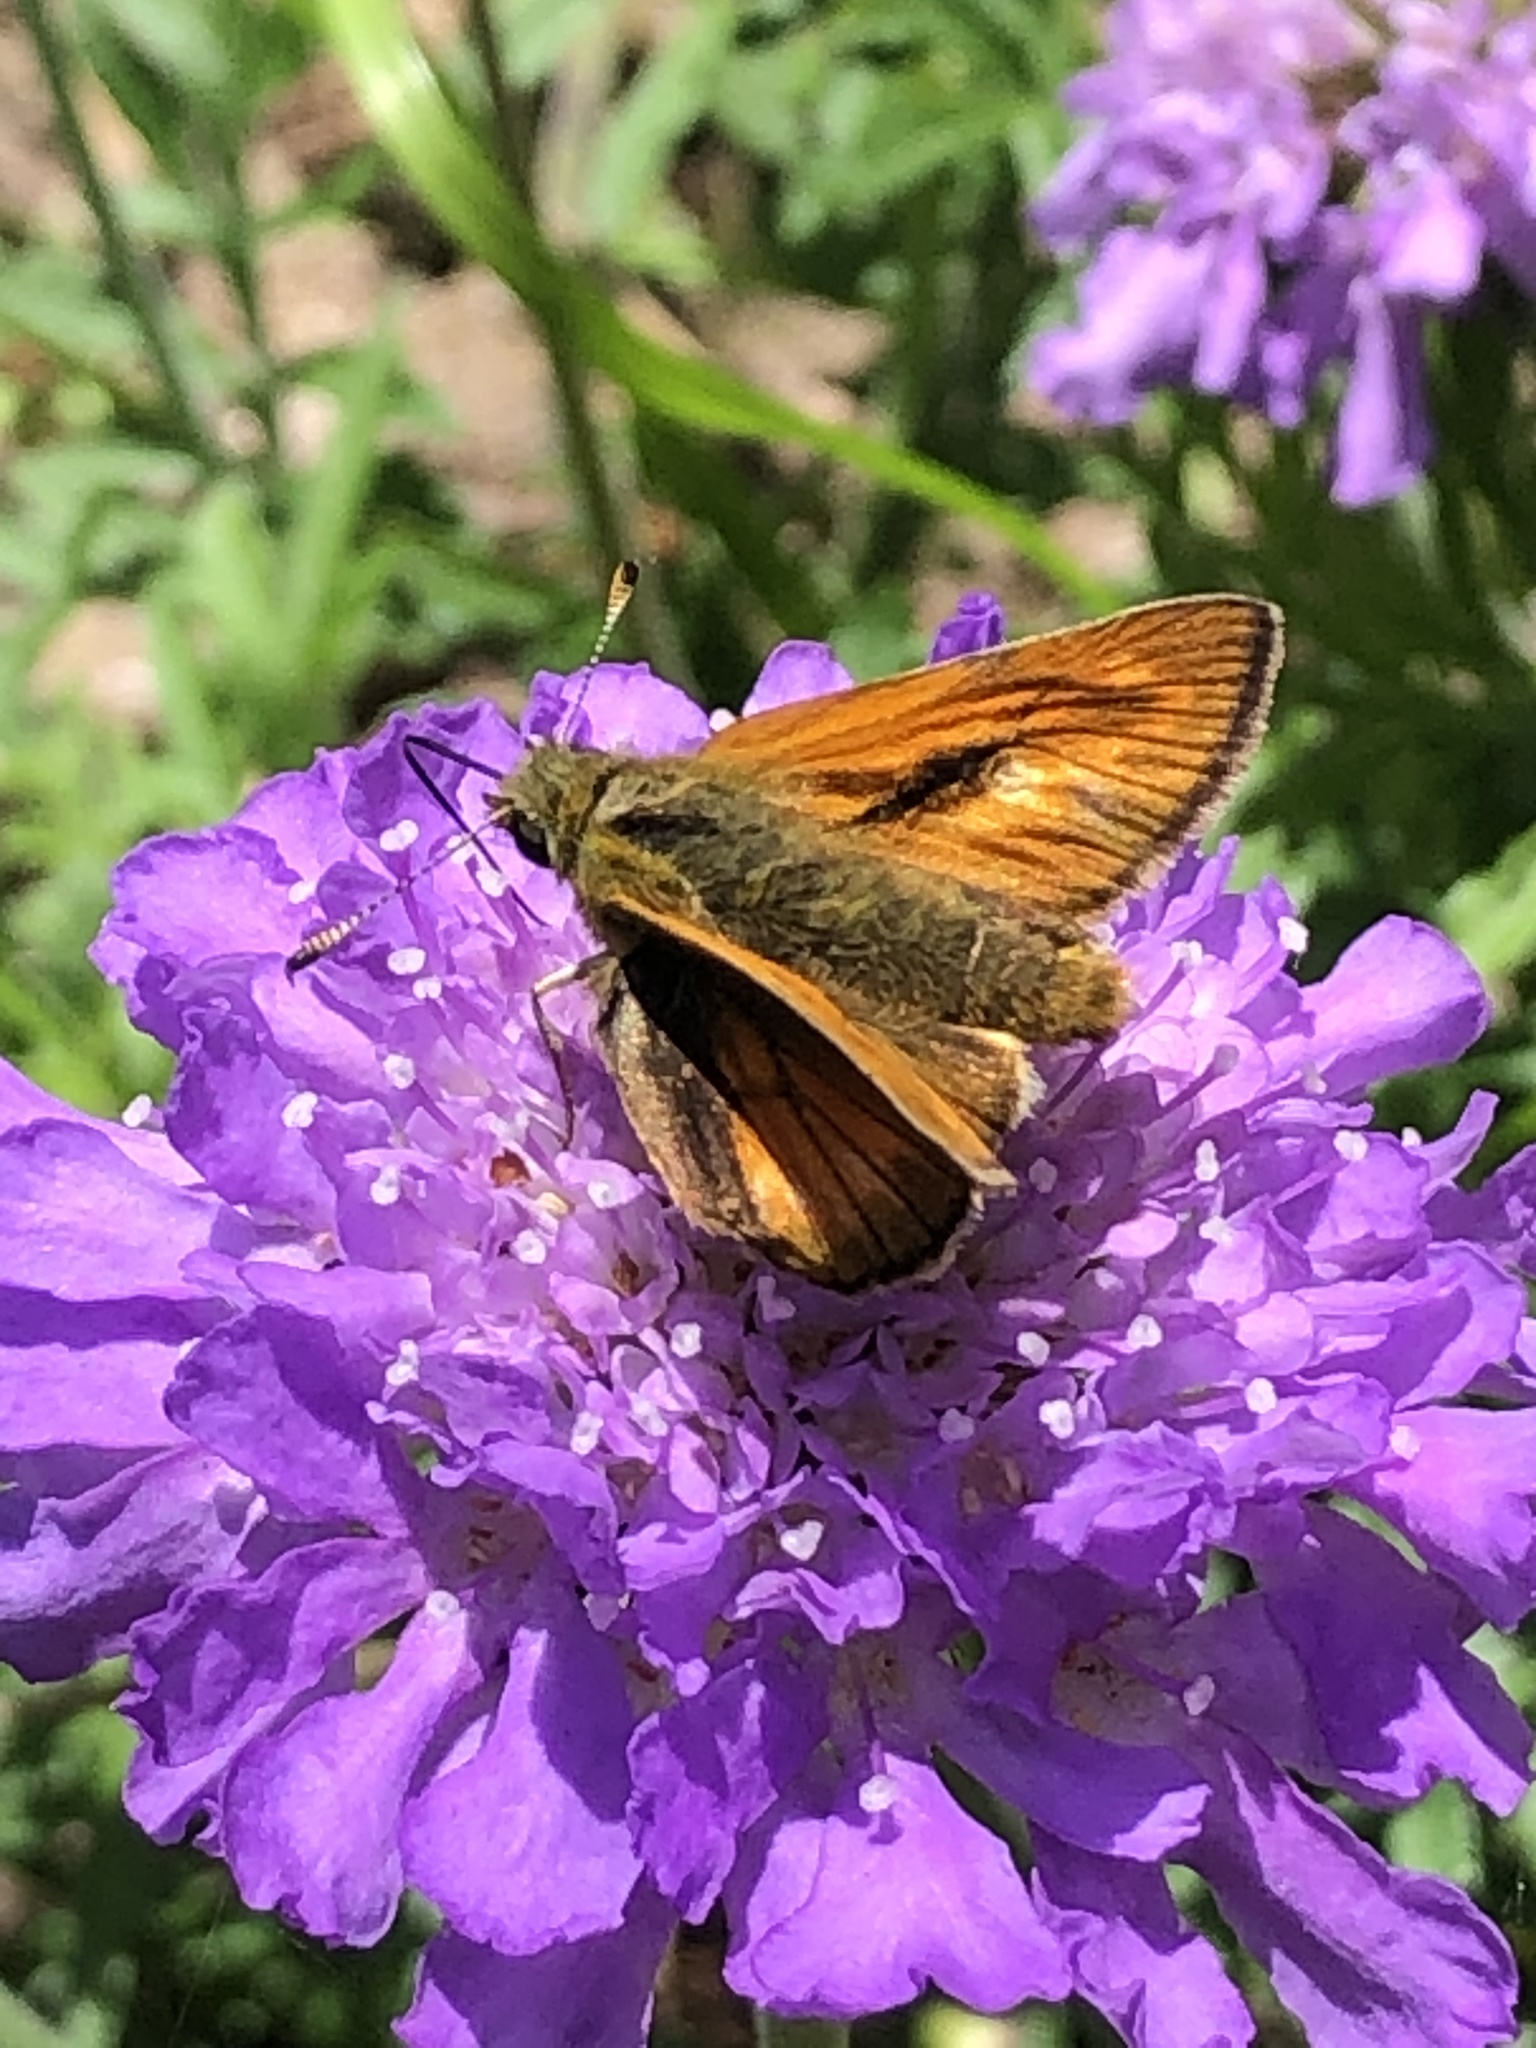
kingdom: Animalia
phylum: Arthropoda
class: Insecta
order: Lepidoptera
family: Hesperiidae
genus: Ochlodes
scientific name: Ochlodes venata
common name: Large skipper
